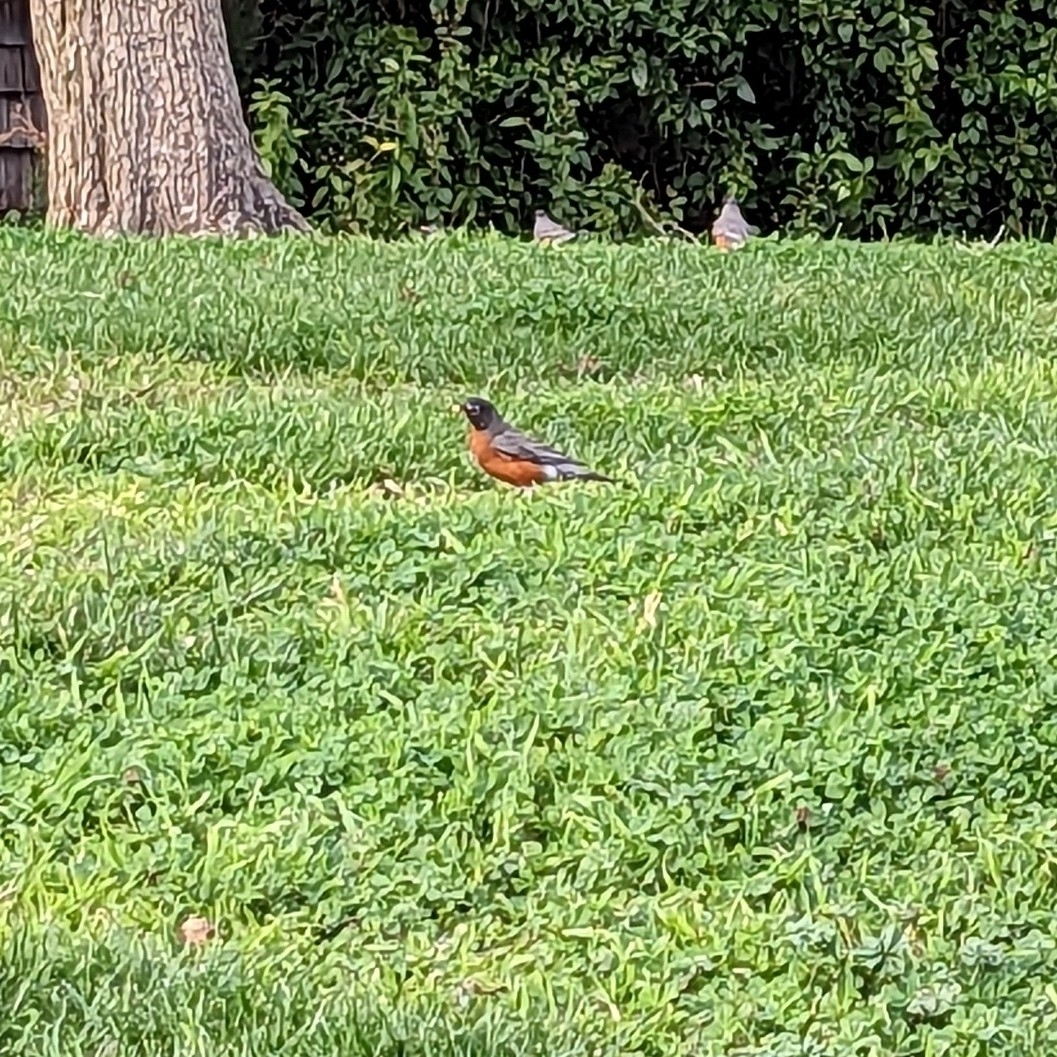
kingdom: Animalia
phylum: Chordata
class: Aves
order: Passeriformes
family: Turdidae
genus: Turdus
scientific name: Turdus migratorius
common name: American robin
